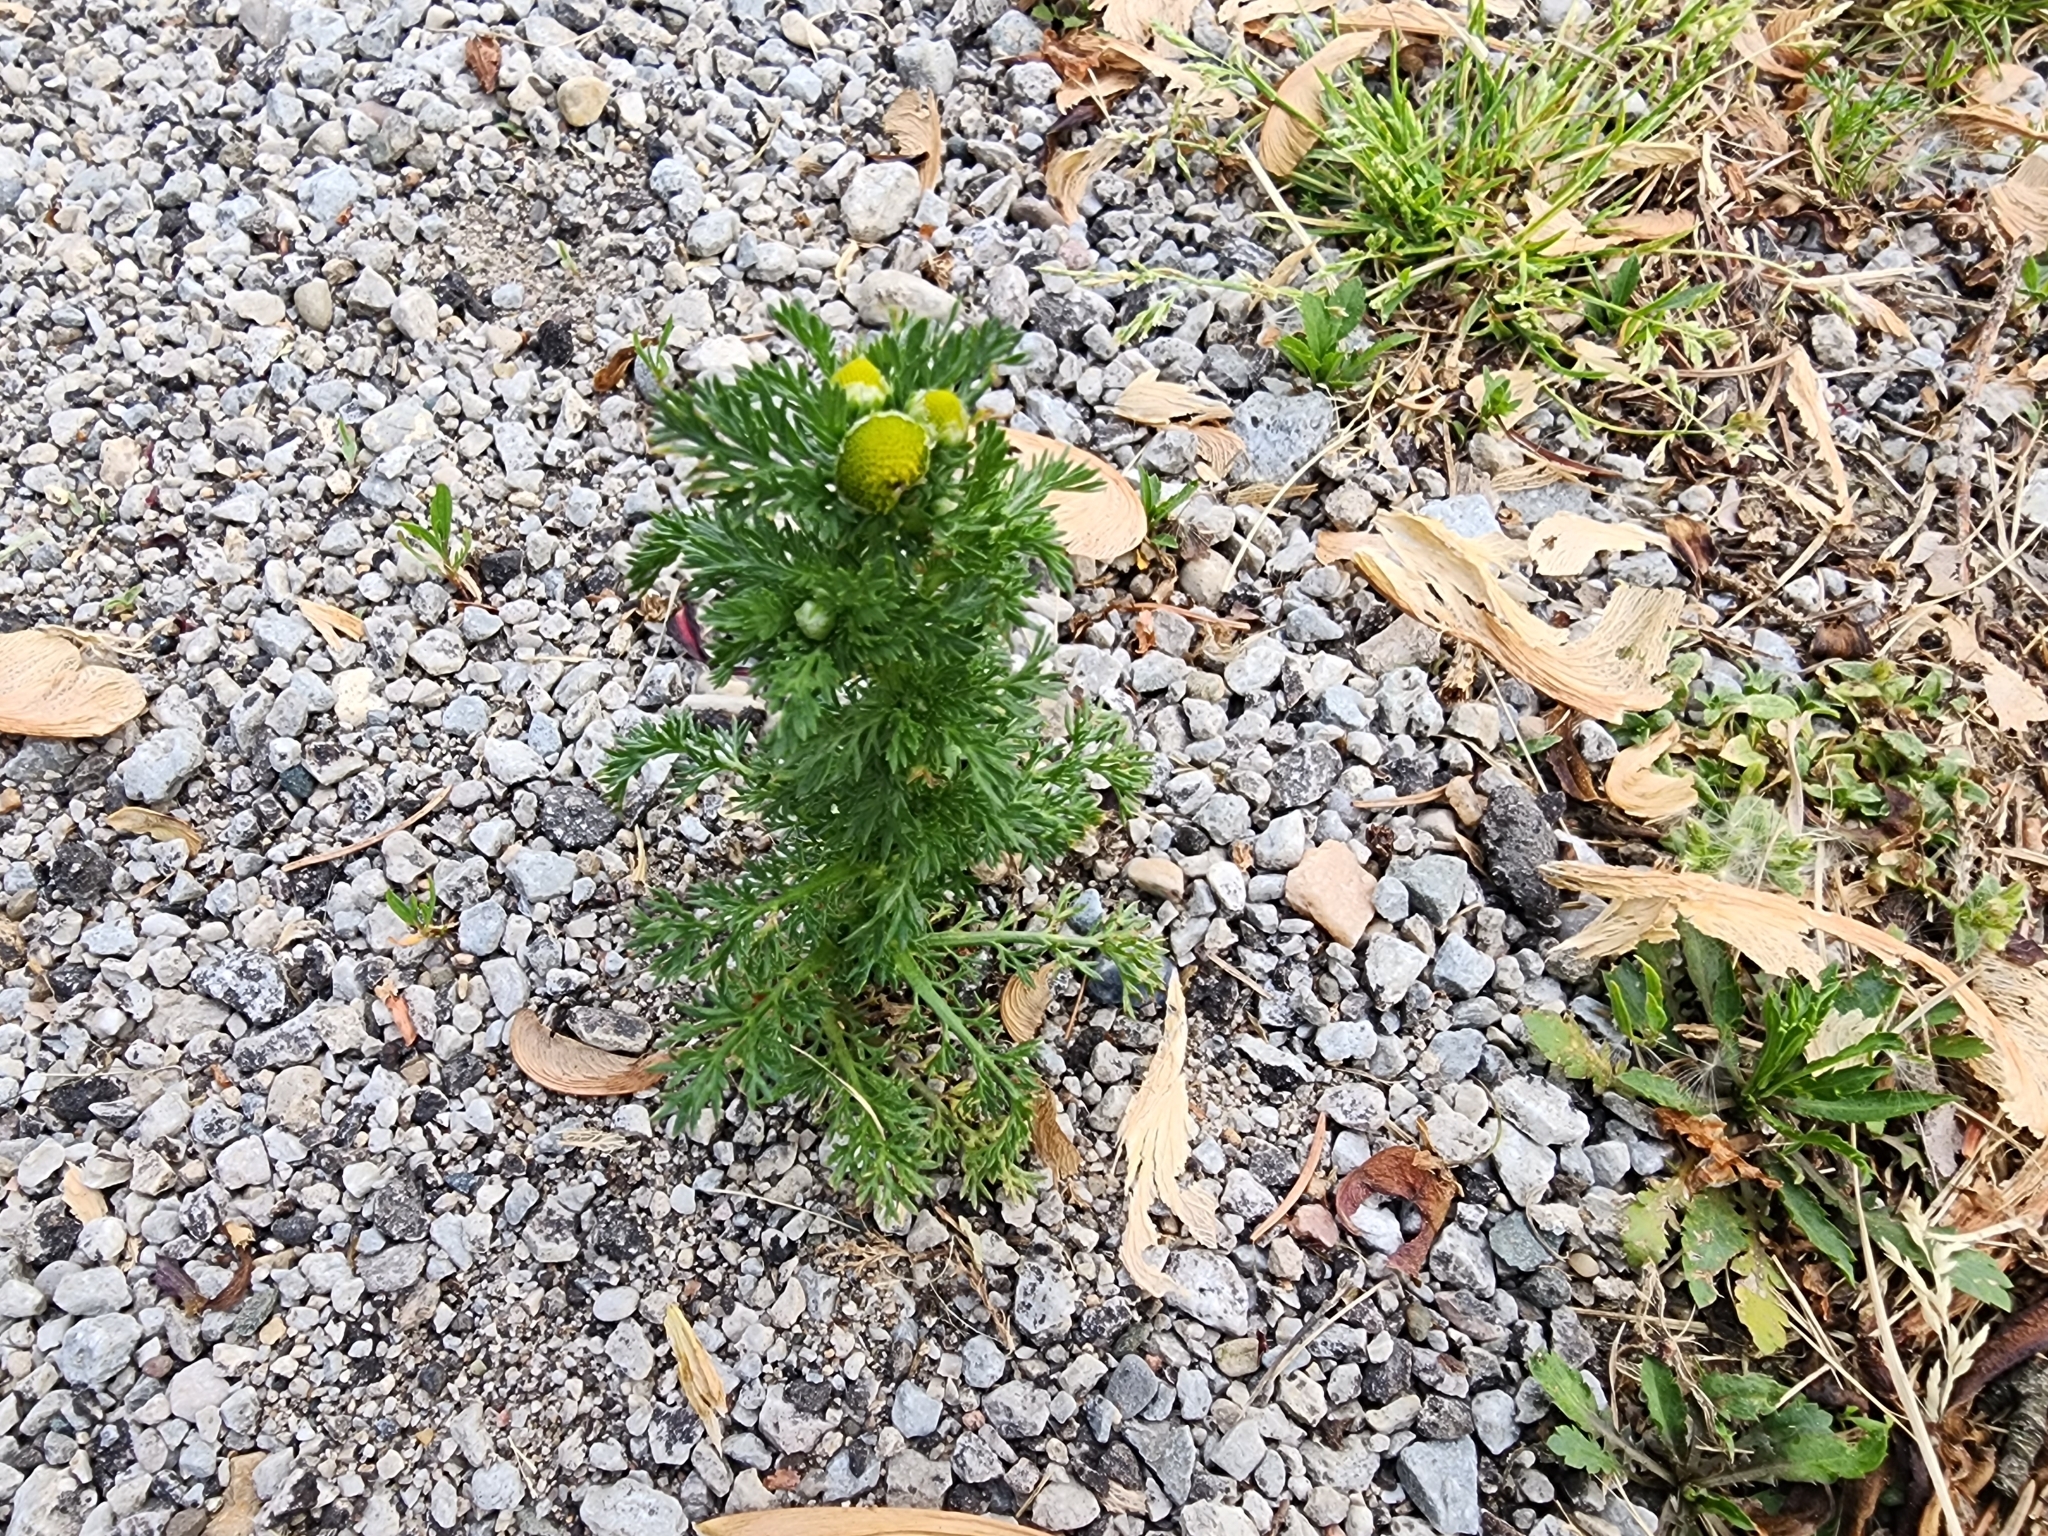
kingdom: Plantae
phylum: Tracheophyta
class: Magnoliopsida
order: Asterales
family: Asteraceae
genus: Matricaria
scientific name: Matricaria discoidea
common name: Disc mayweed
